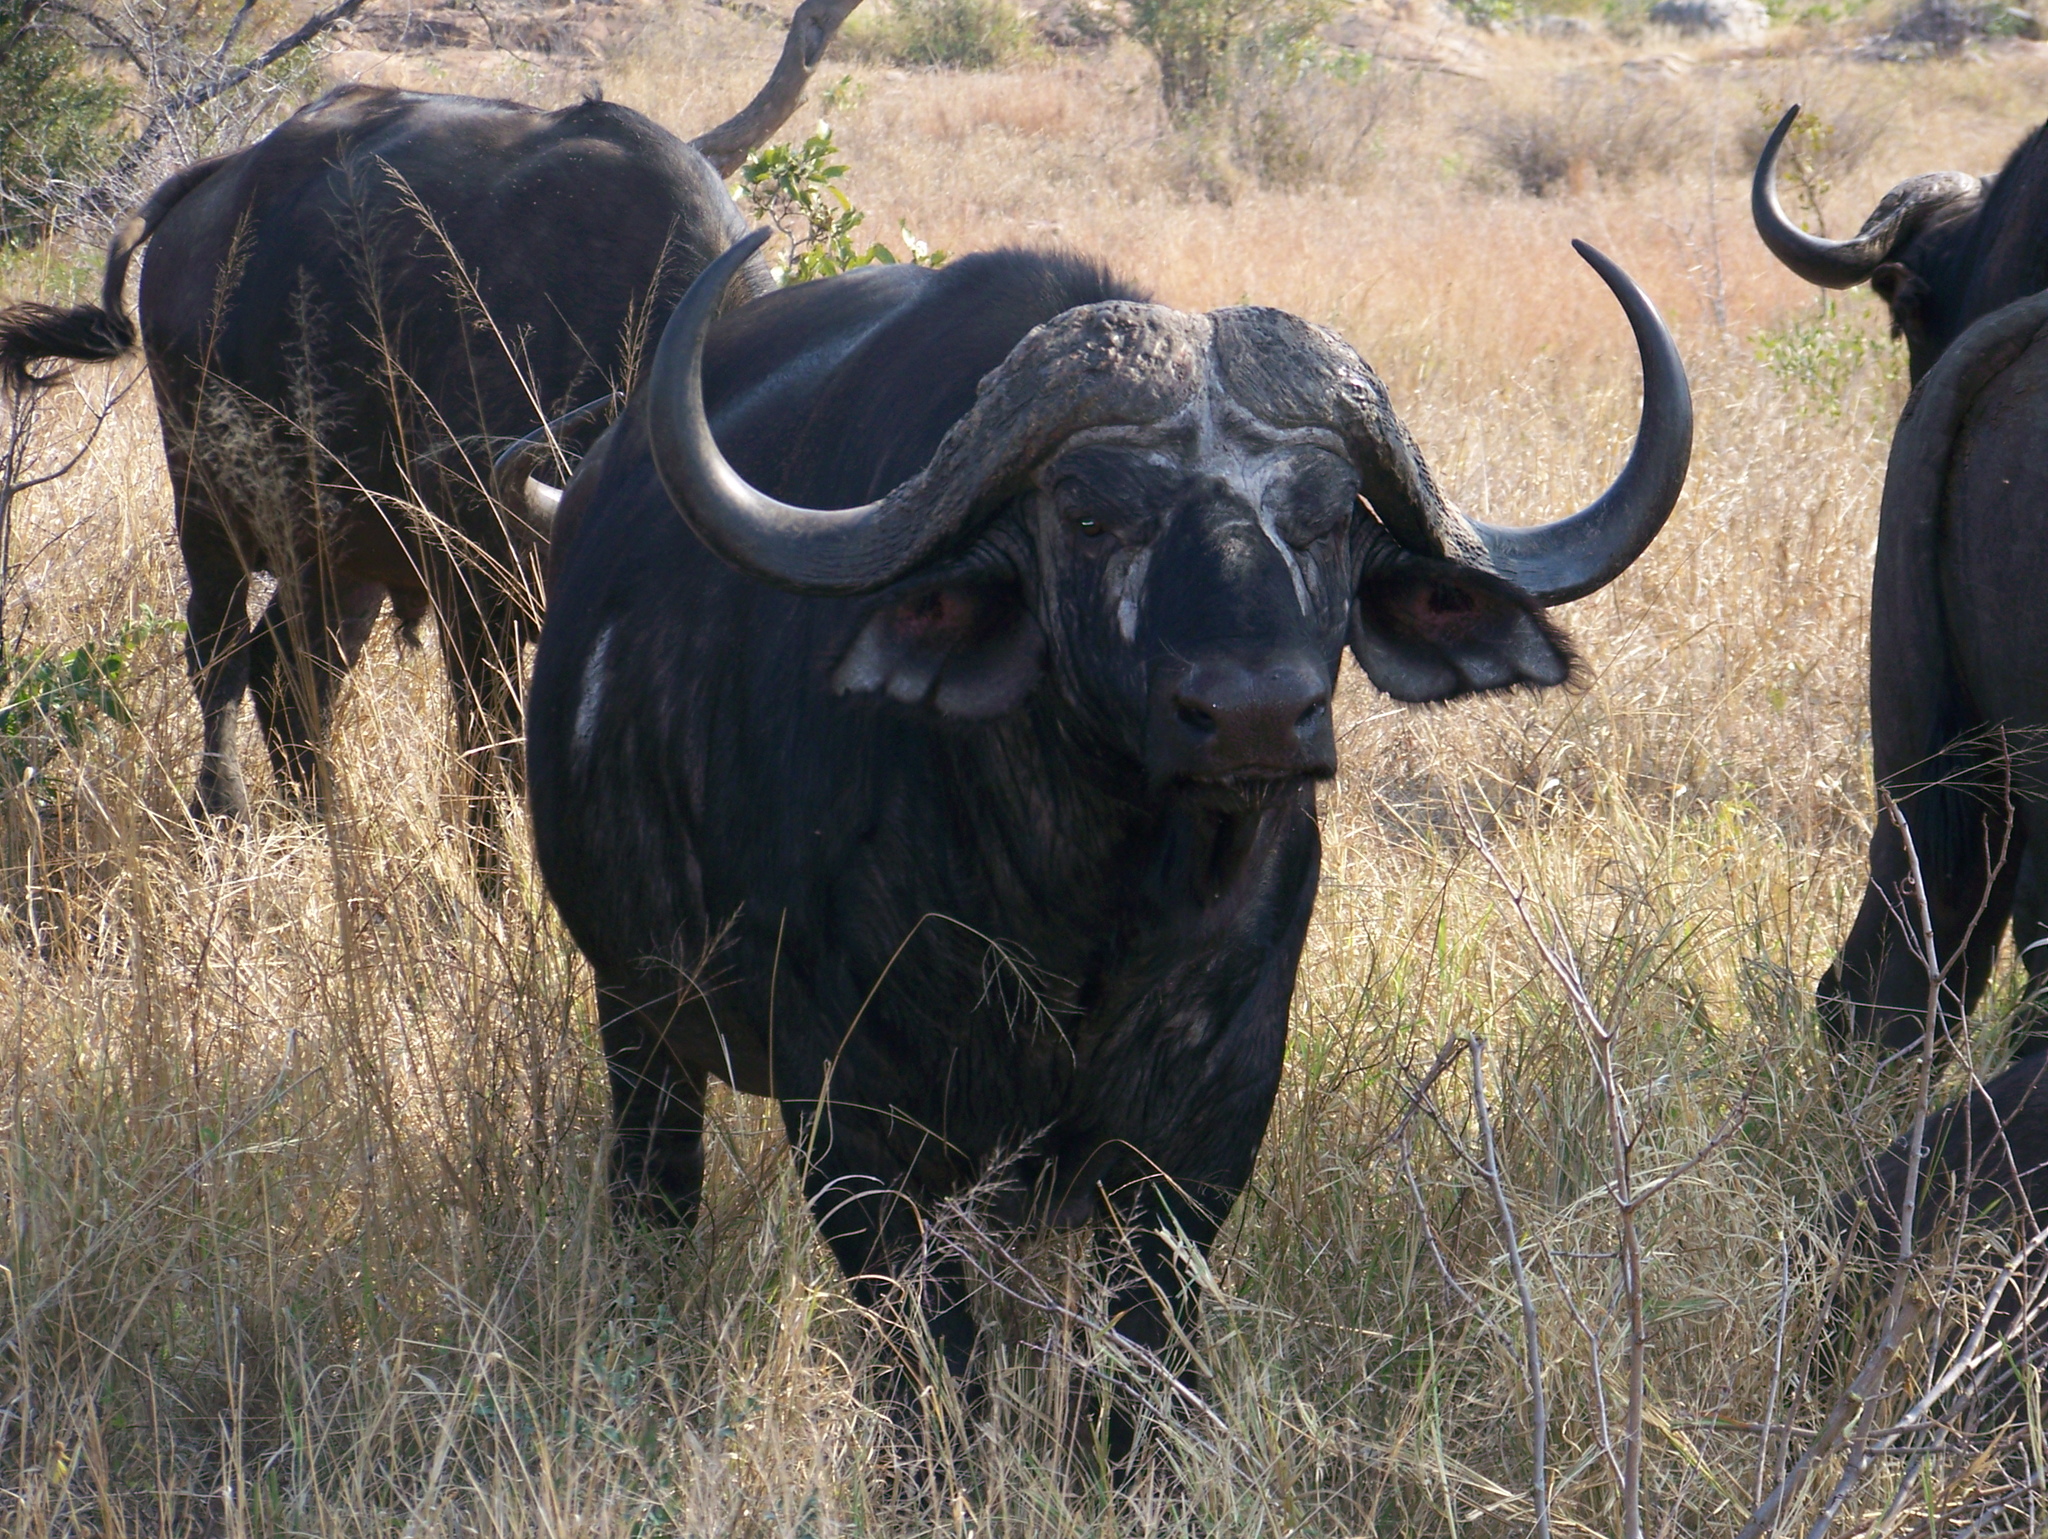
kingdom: Animalia
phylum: Chordata
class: Mammalia
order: Artiodactyla
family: Bovidae
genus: Syncerus
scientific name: Syncerus caffer
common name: African buffalo
